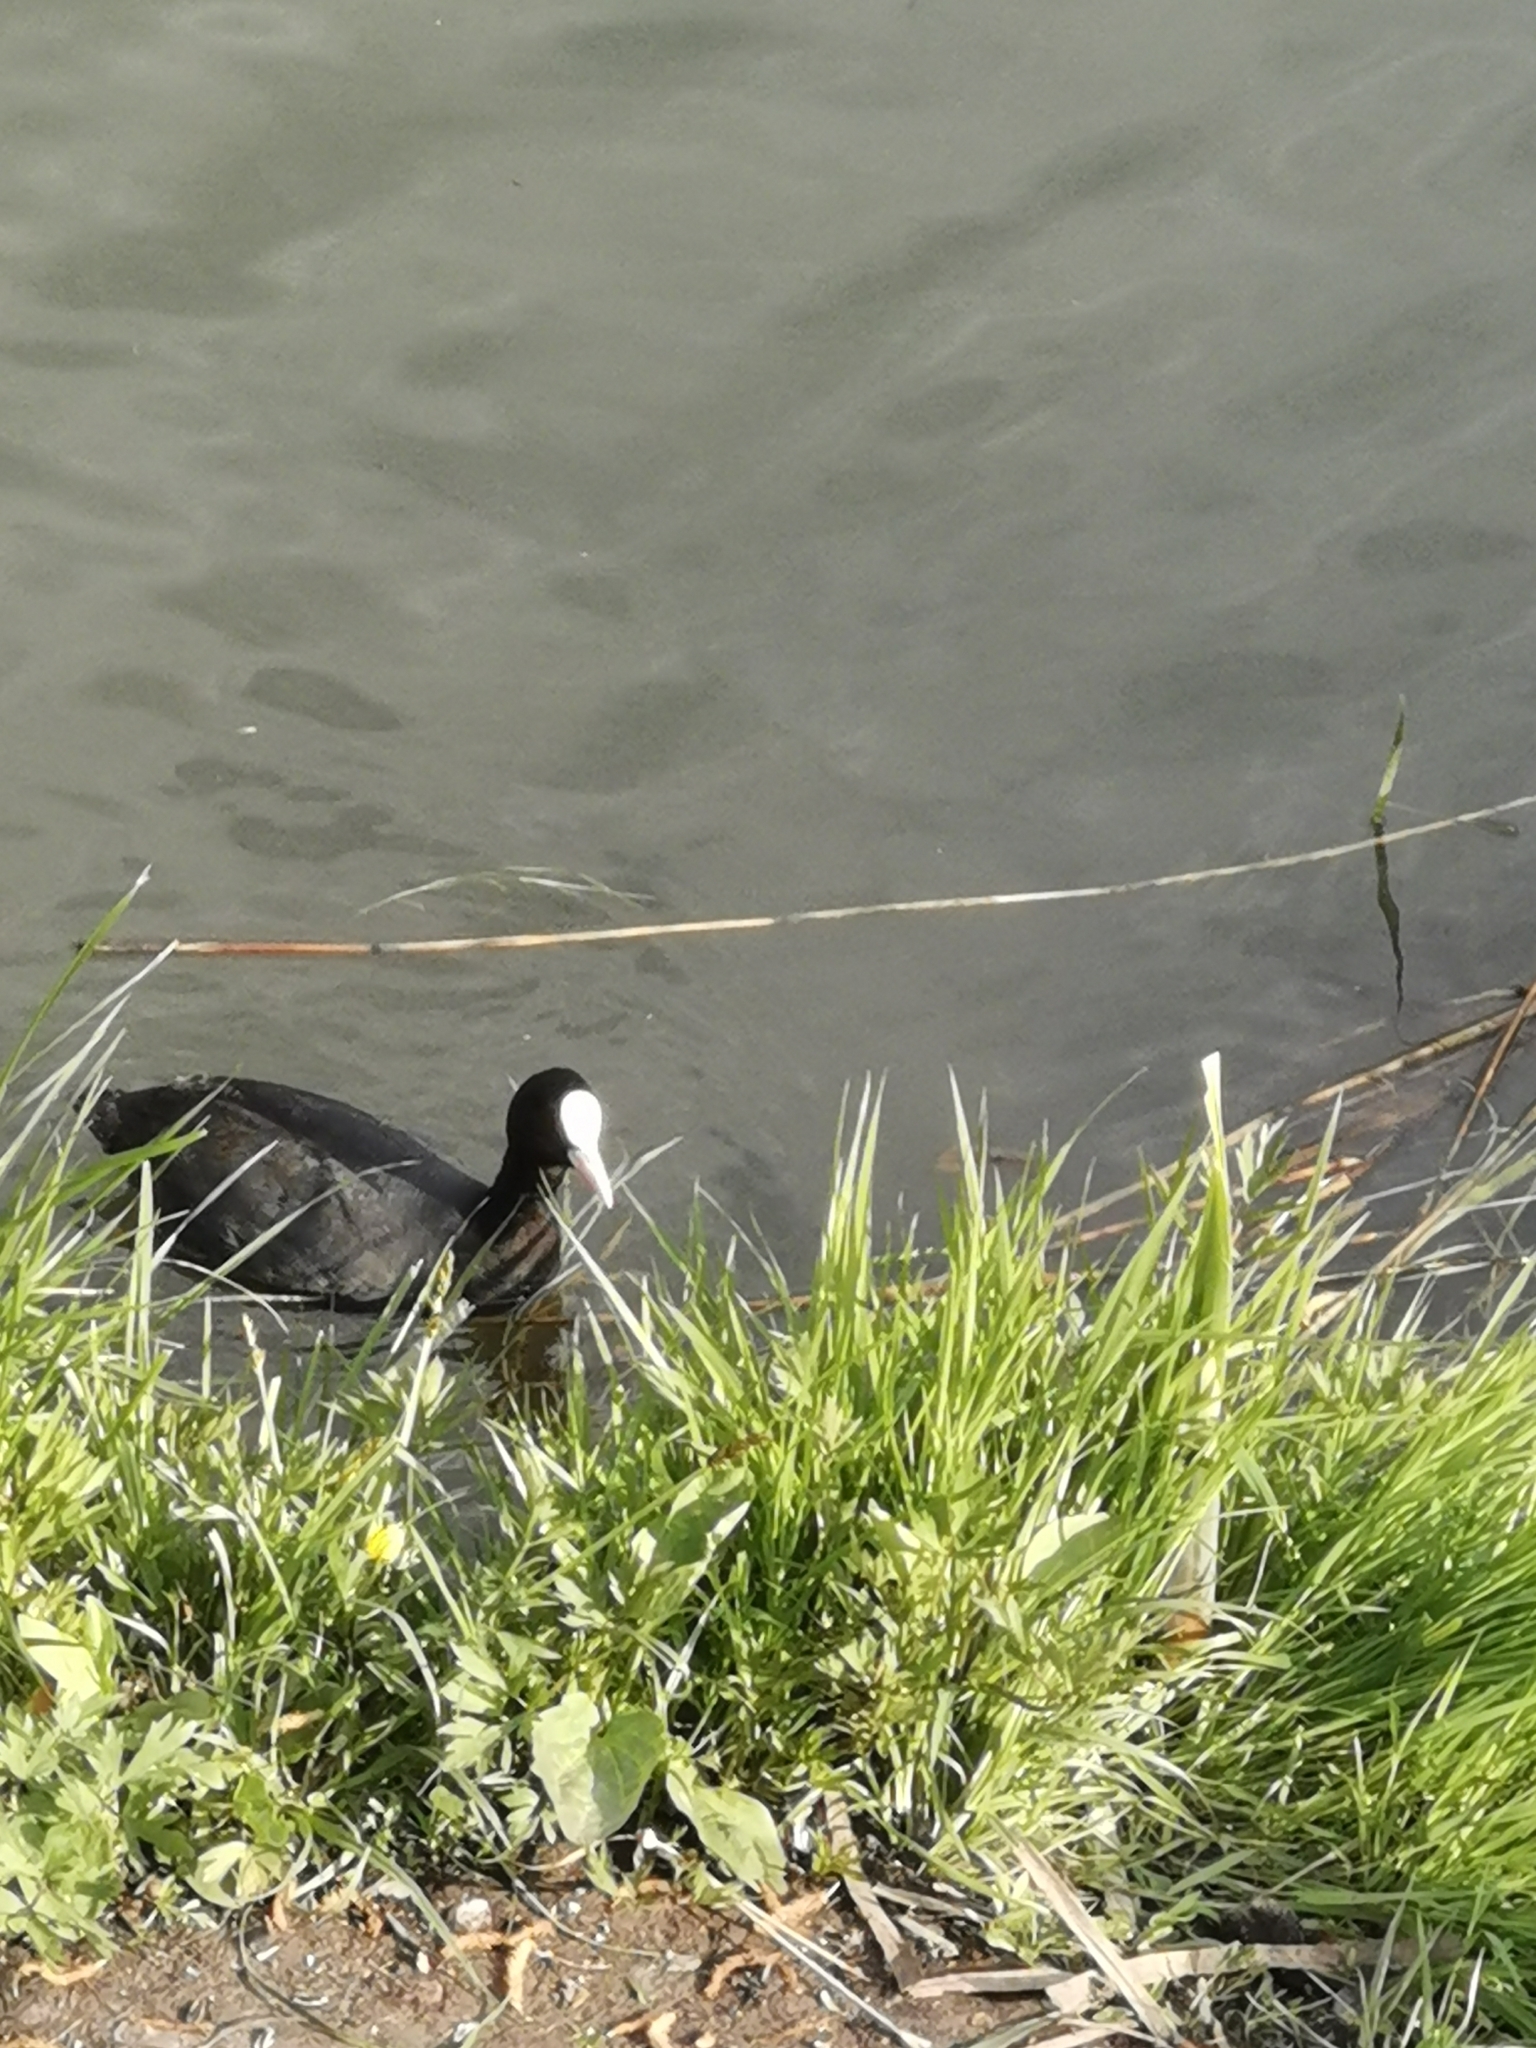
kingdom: Animalia
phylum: Chordata
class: Aves
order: Gruiformes
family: Rallidae
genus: Fulica
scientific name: Fulica atra
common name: Eurasian coot
